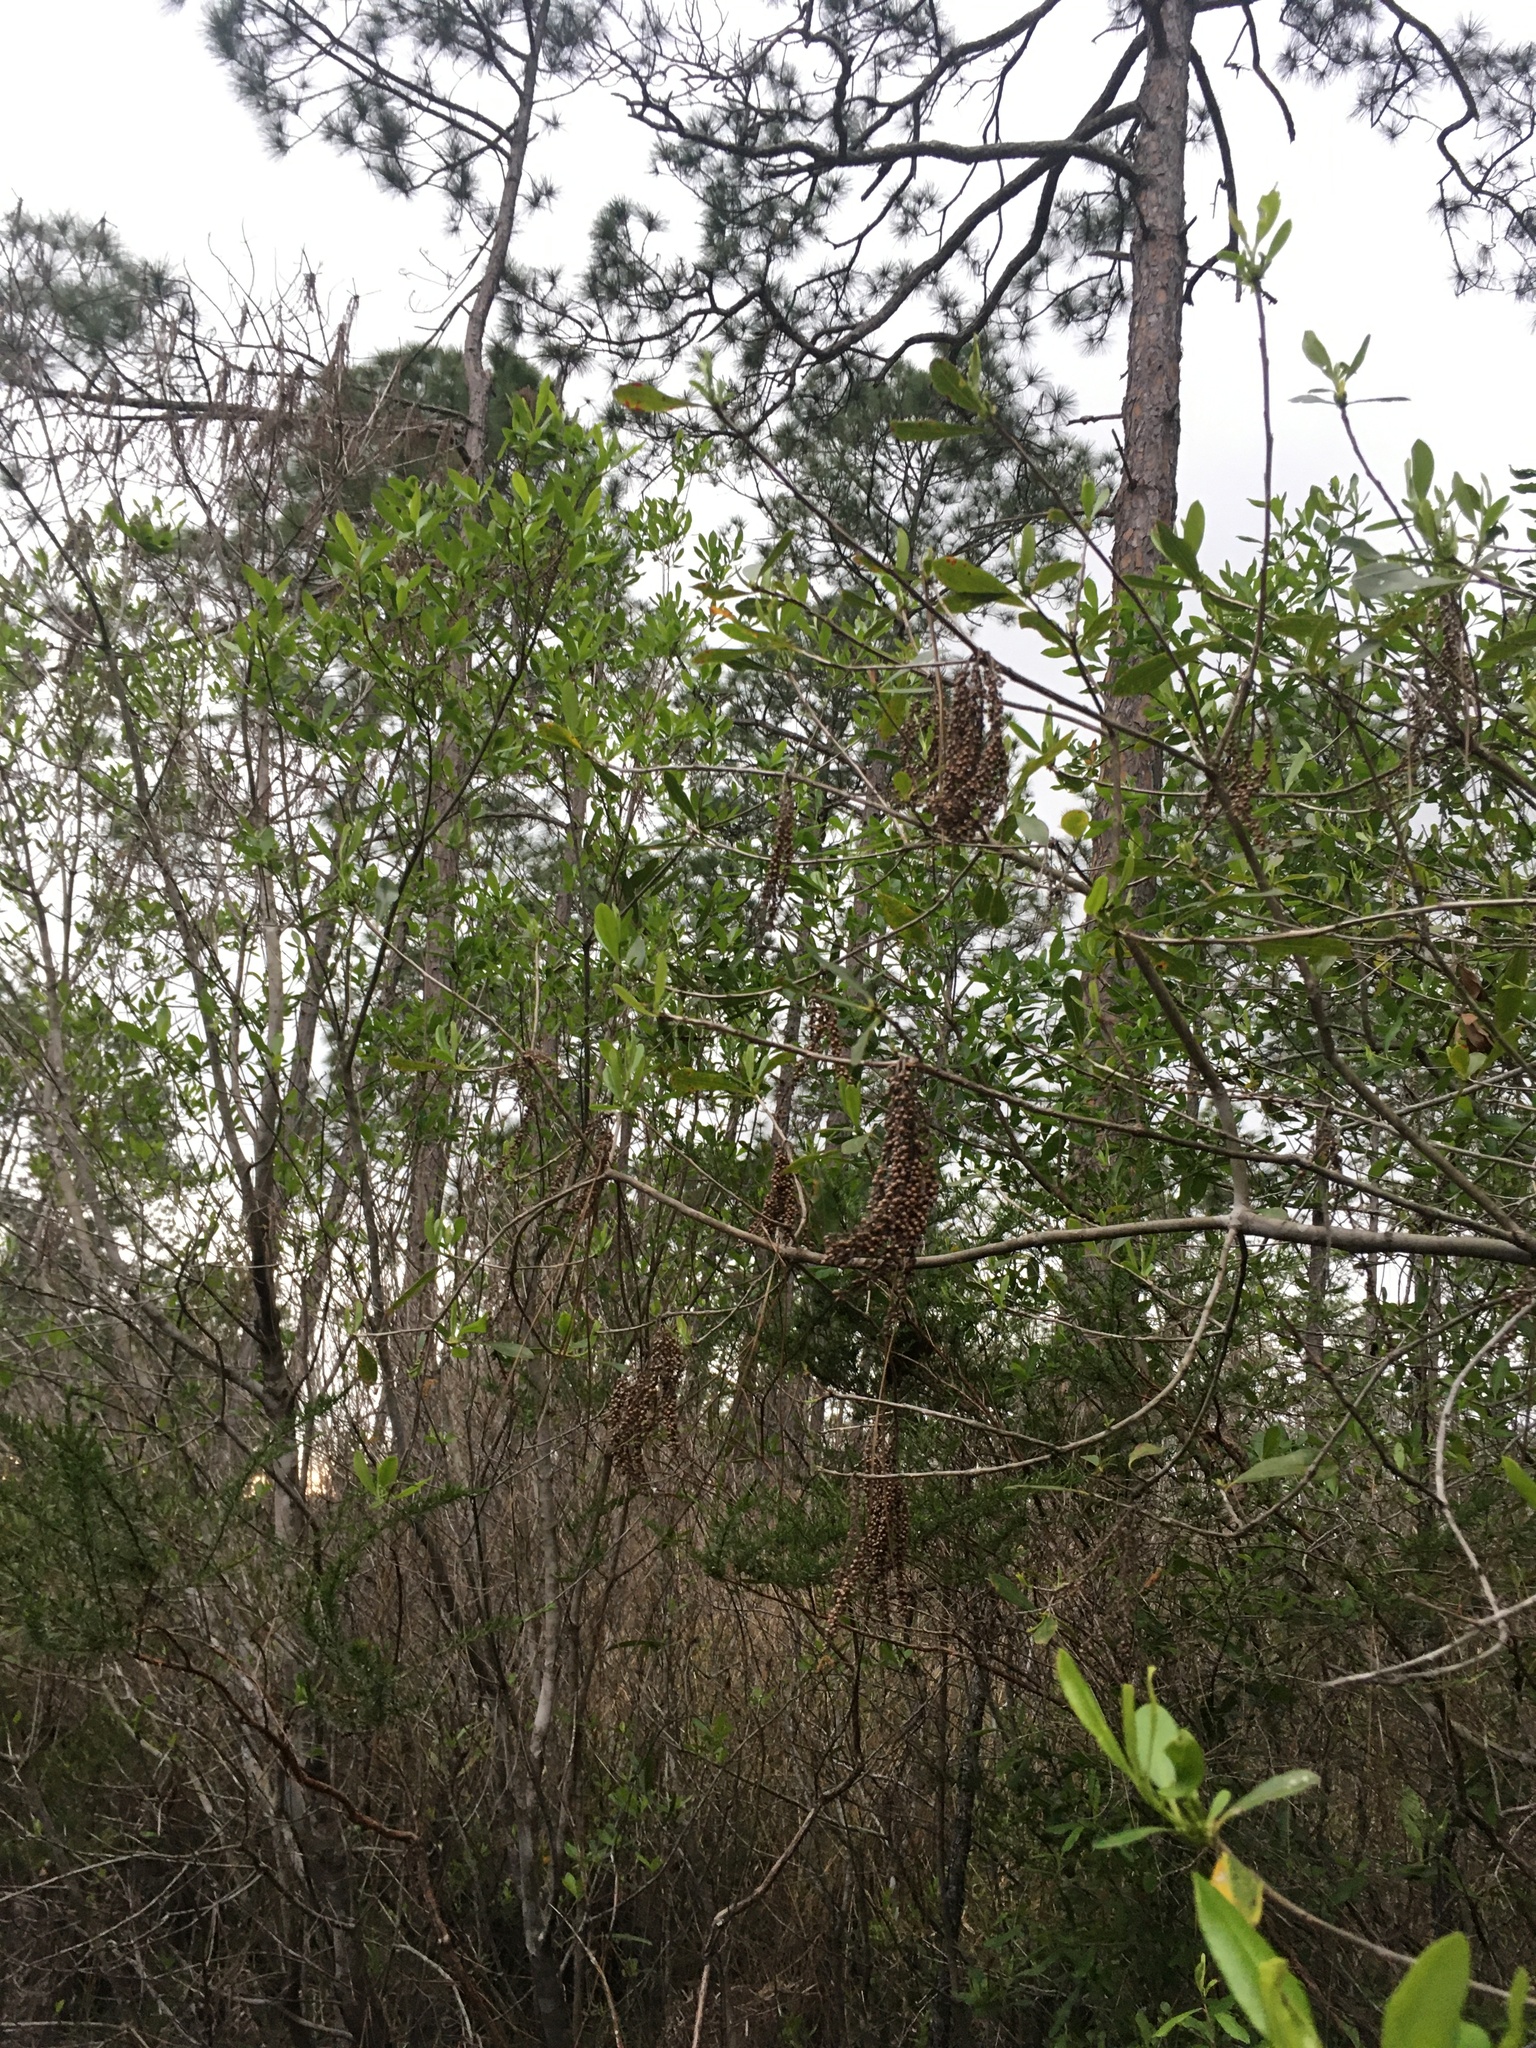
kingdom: Plantae
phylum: Tracheophyta
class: Magnoliopsida
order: Ericales
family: Cyrillaceae
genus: Cyrilla
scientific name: Cyrilla racemiflora
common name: Black titi
